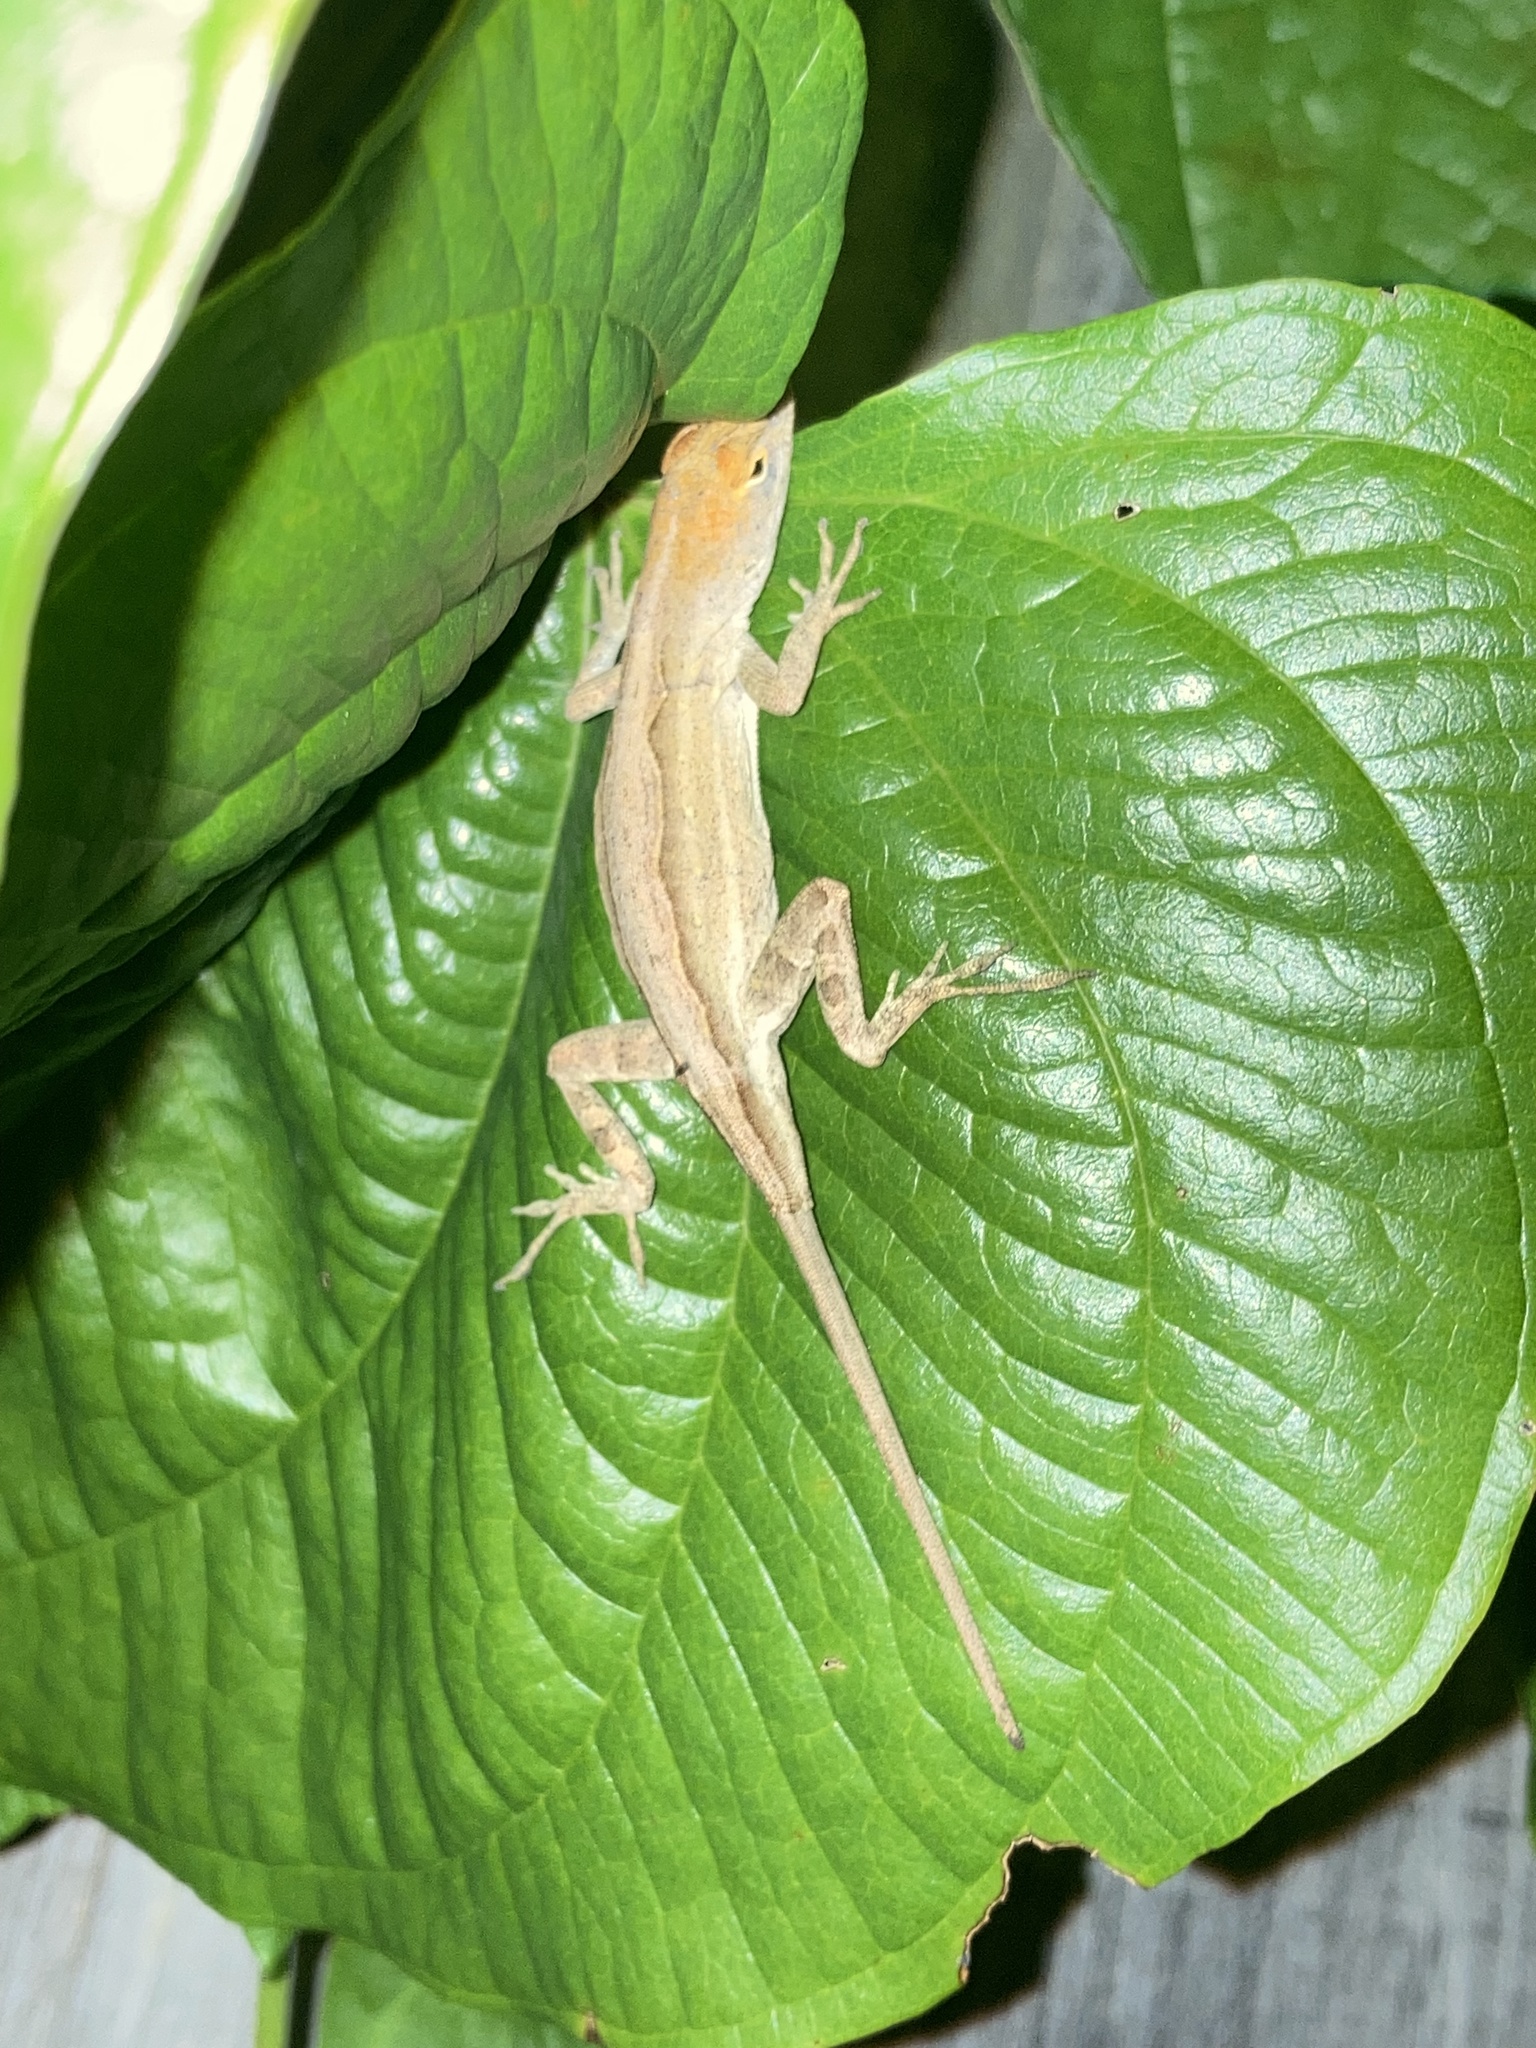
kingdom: Animalia
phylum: Chordata
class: Squamata
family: Dactyloidae
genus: Anolis
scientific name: Anolis sagrei
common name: Brown anole
